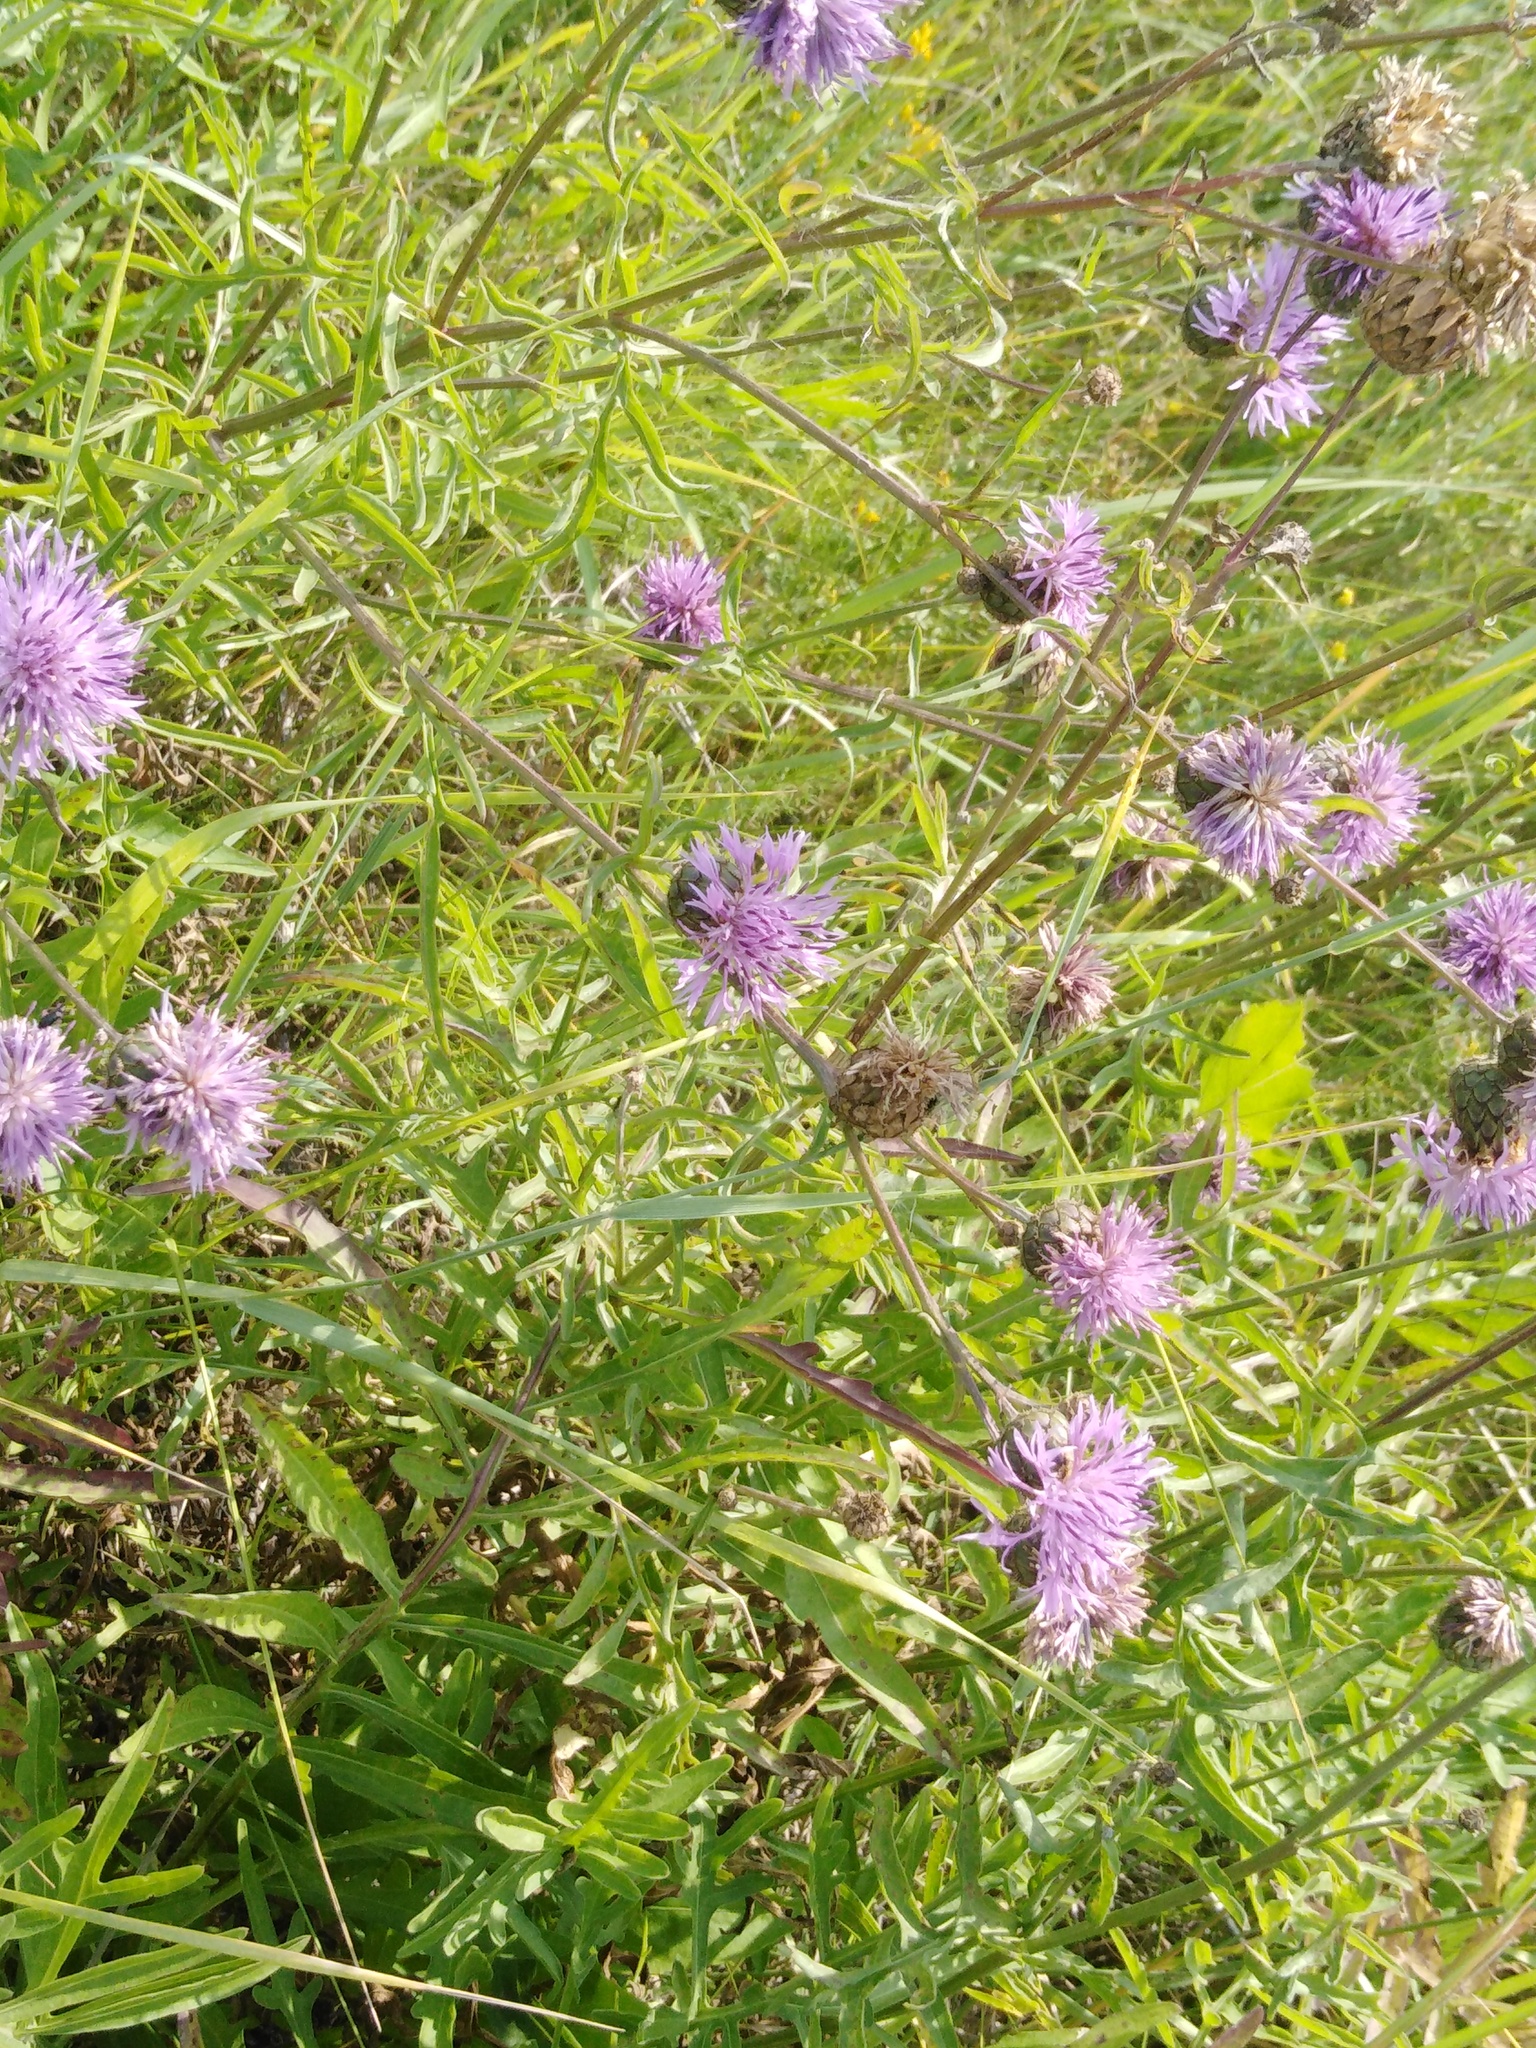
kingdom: Plantae
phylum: Tracheophyta
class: Magnoliopsida
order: Asterales
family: Asteraceae
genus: Centaurea
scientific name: Centaurea scabiosa
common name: Greater knapweed
